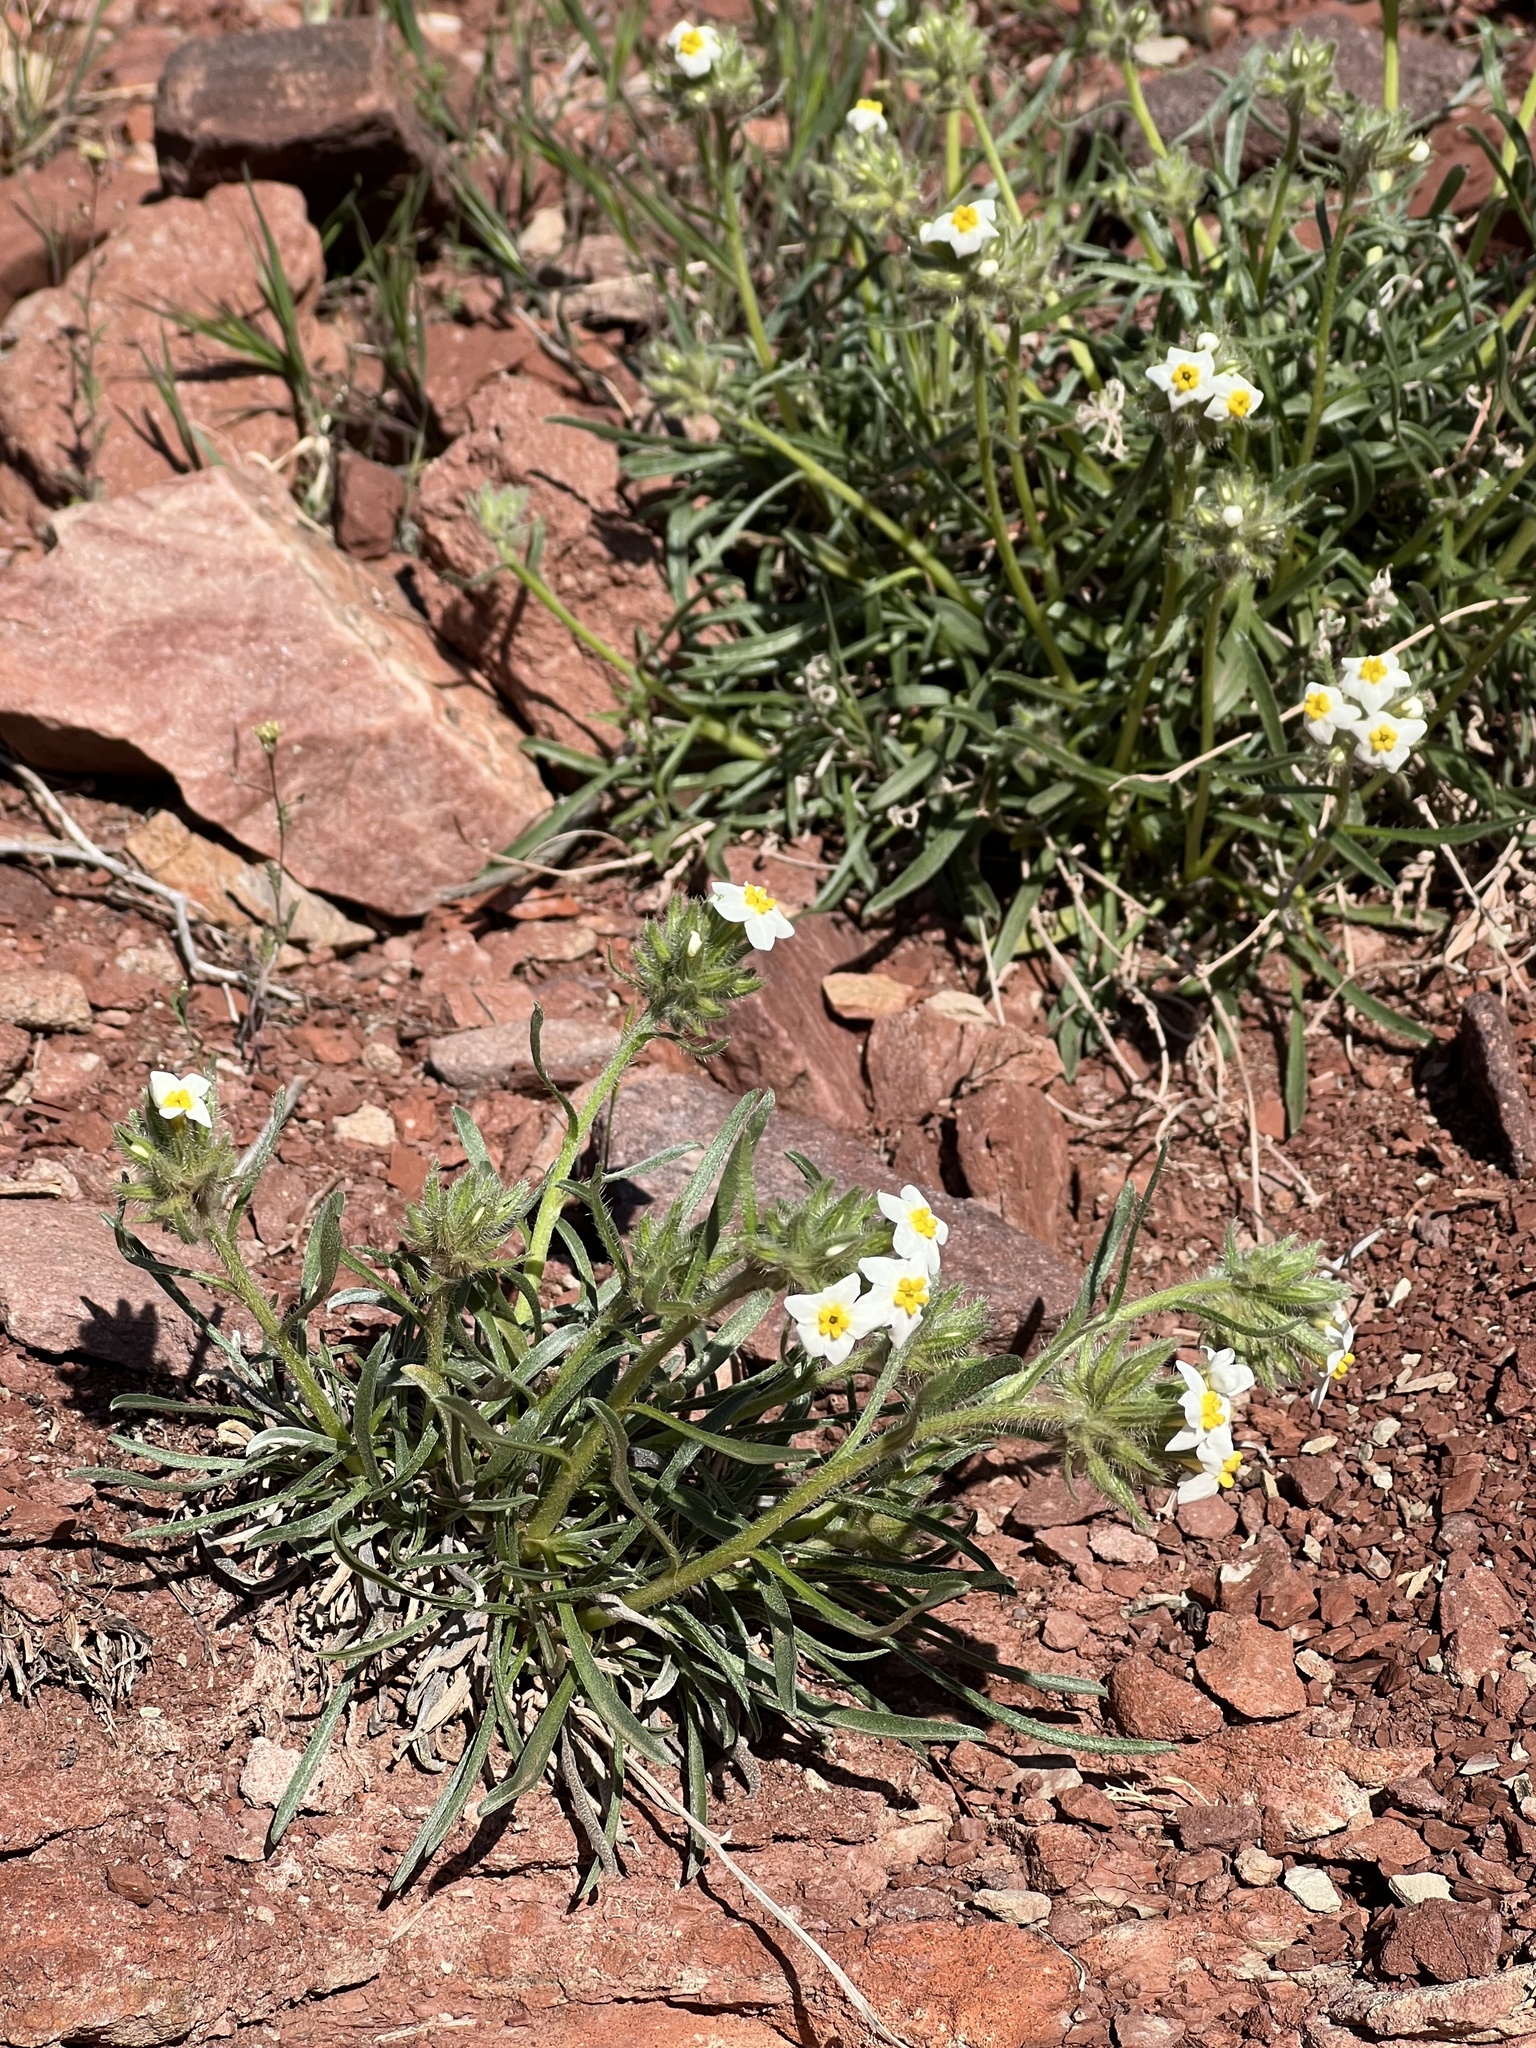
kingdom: Plantae
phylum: Tracheophyta
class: Magnoliopsida
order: Boraginales
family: Boraginaceae
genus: Oreocarya
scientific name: Oreocarya capitata
